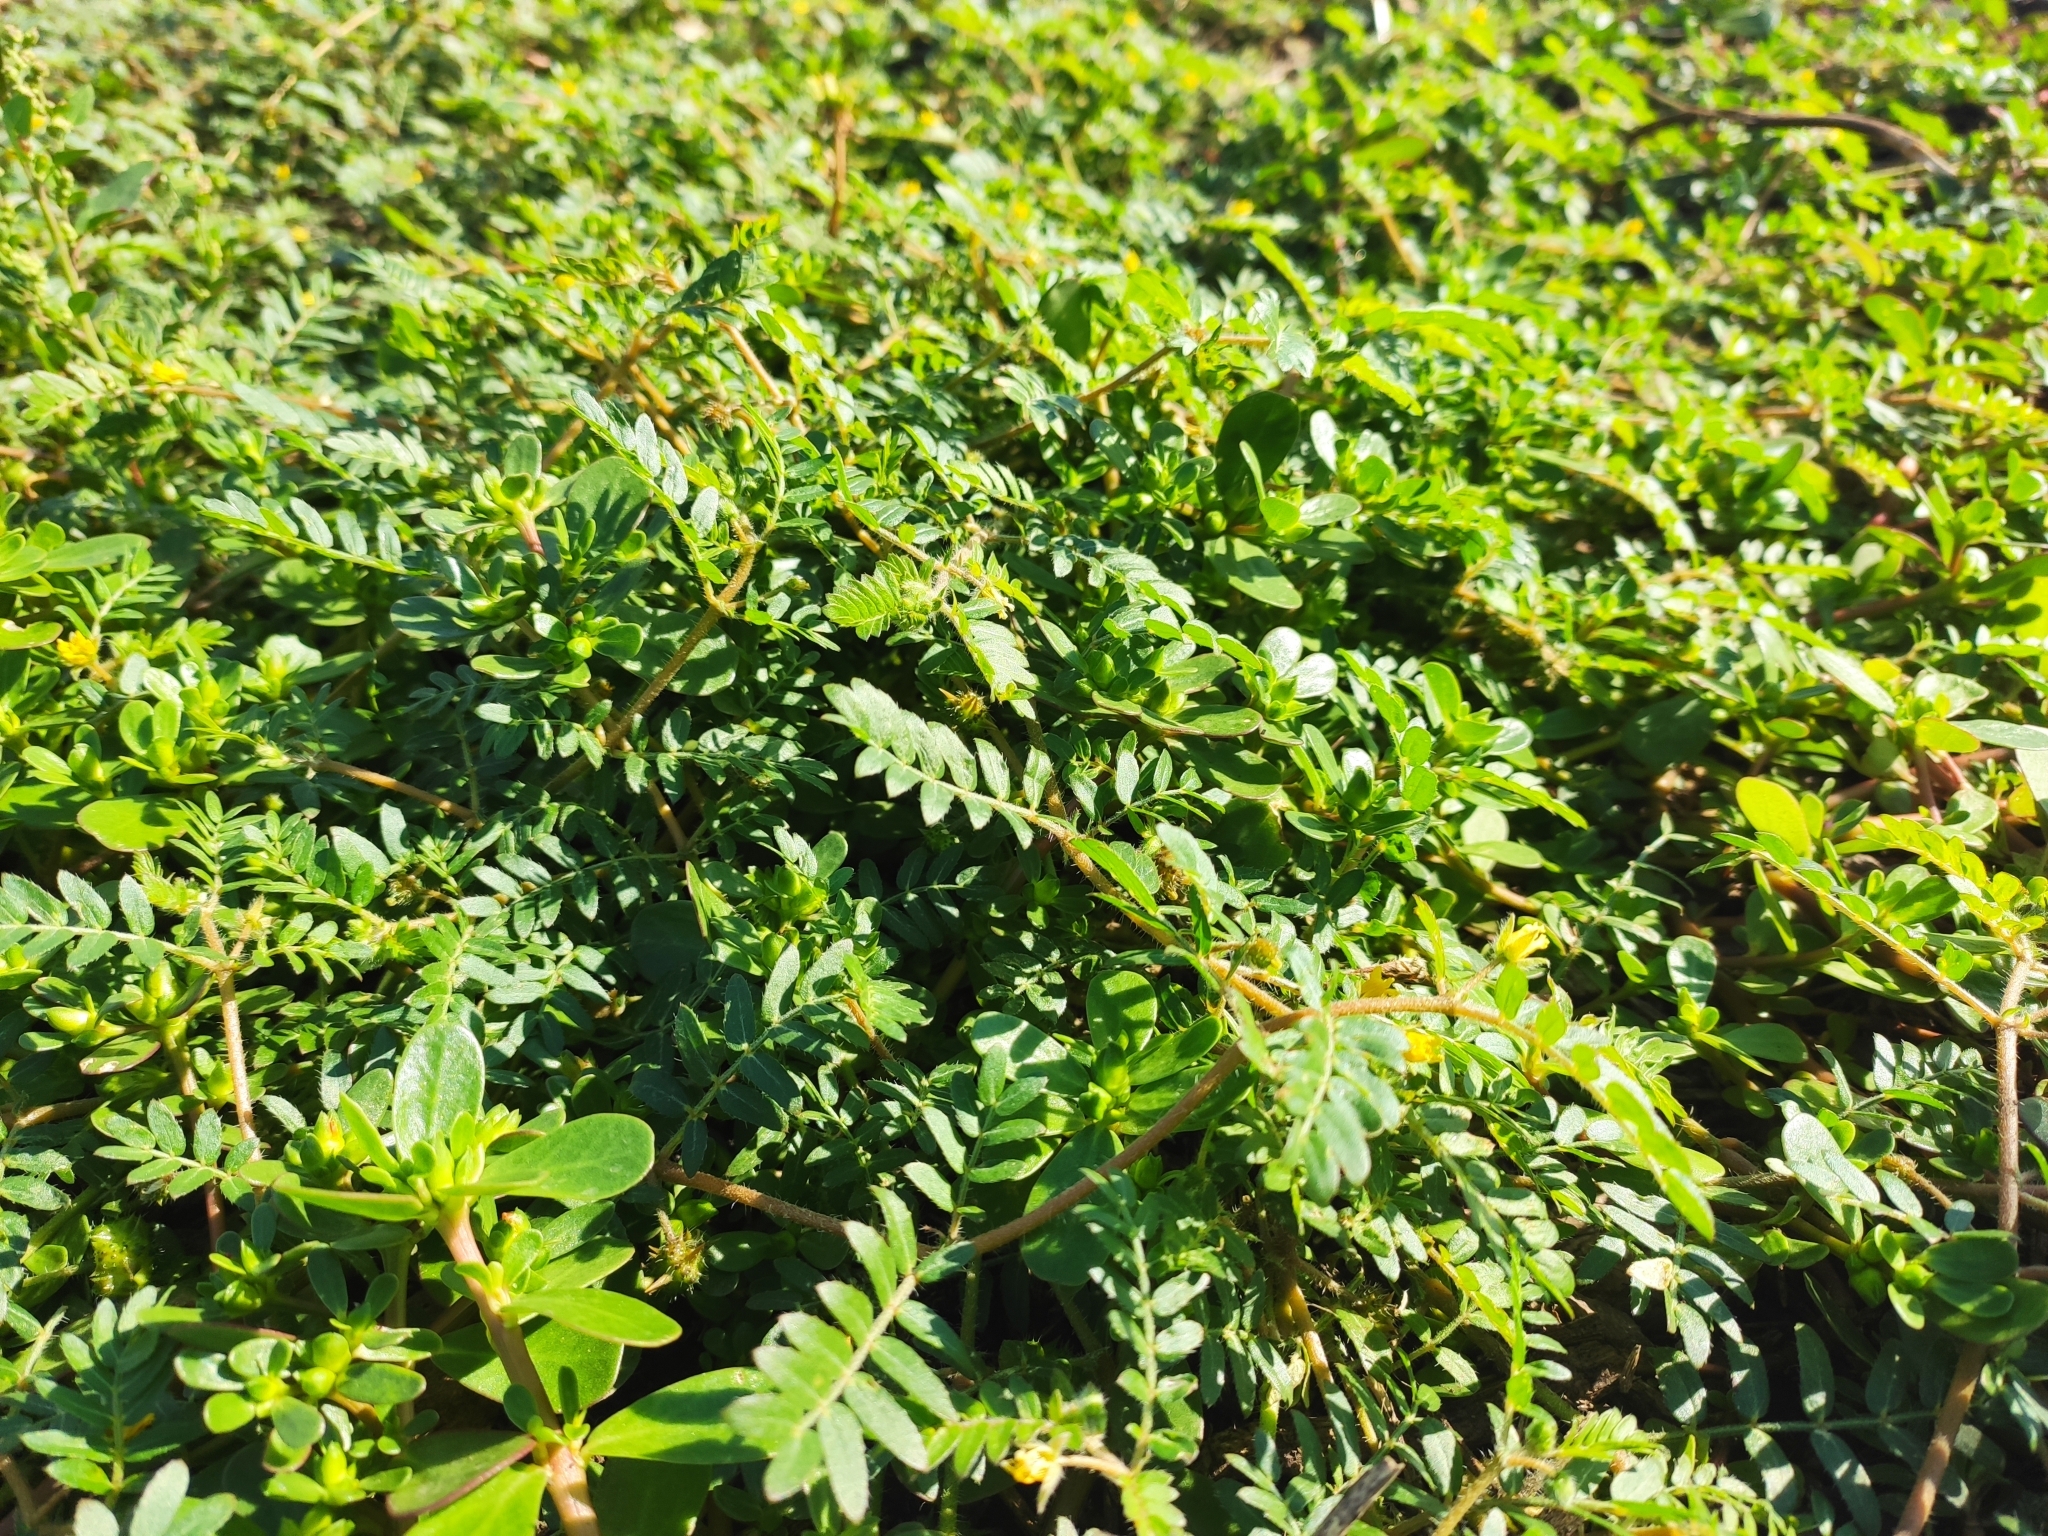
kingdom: Plantae
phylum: Tracheophyta
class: Magnoliopsida
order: Zygophyllales
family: Zygophyllaceae
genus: Tribulus
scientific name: Tribulus terrestris
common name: Puncturevine
